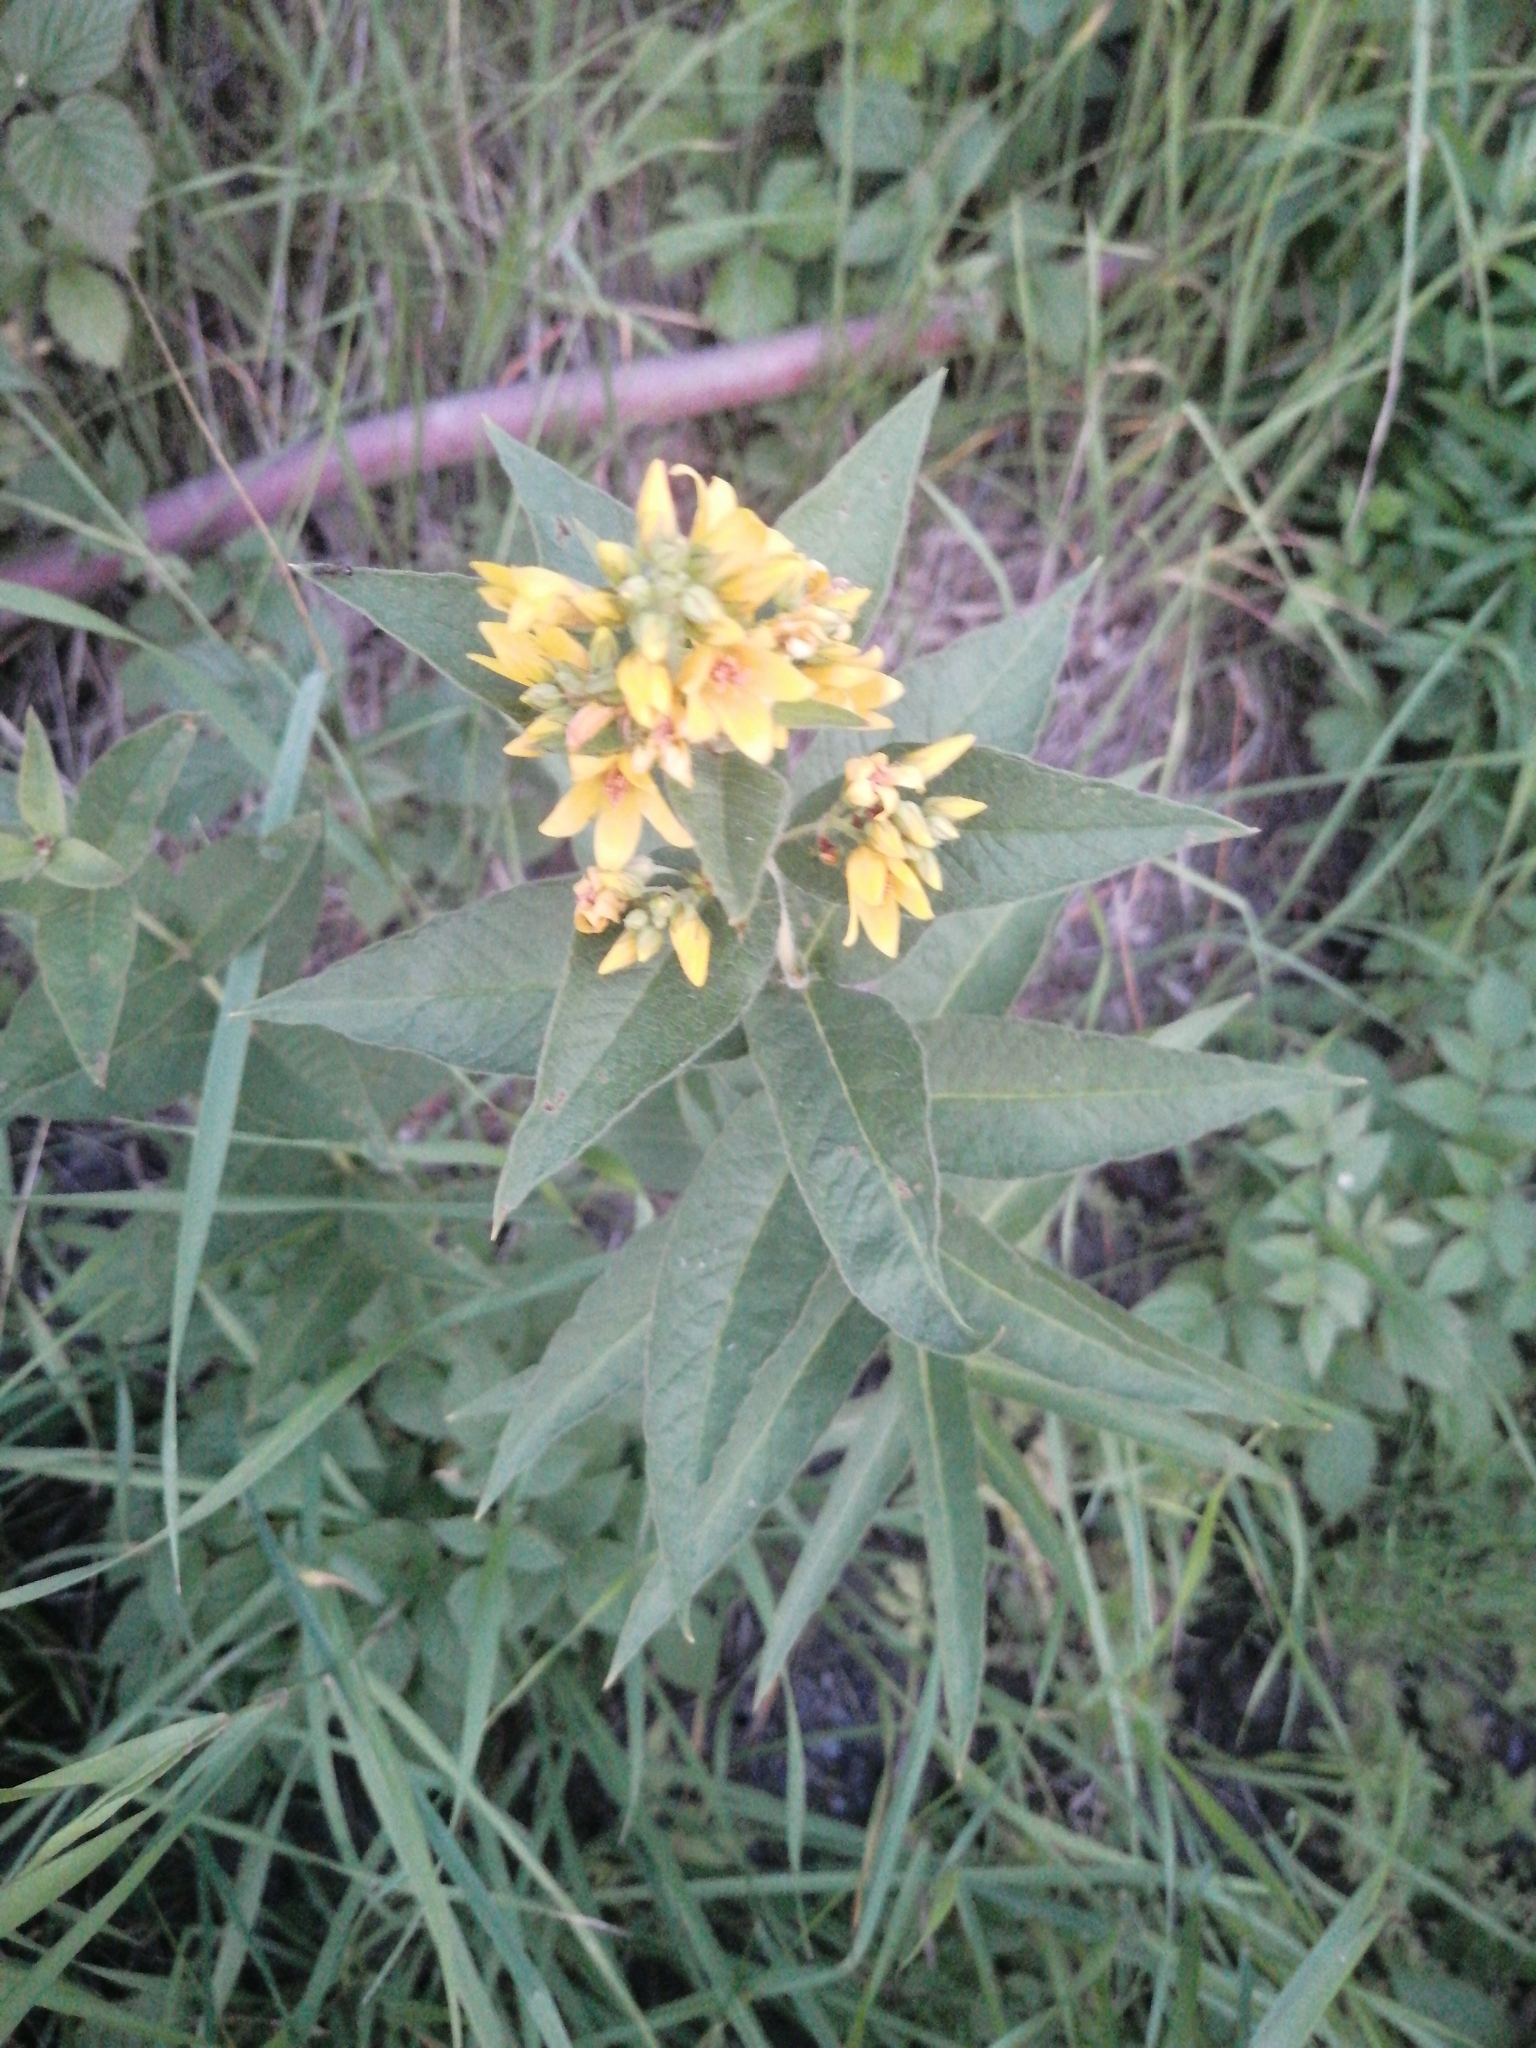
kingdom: Plantae
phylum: Tracheophyta
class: Magnoliopsida
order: Ericales
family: Primulaceae
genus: Lysimachia
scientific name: Lysimachia vulgaris
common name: Yellow loosestrife
